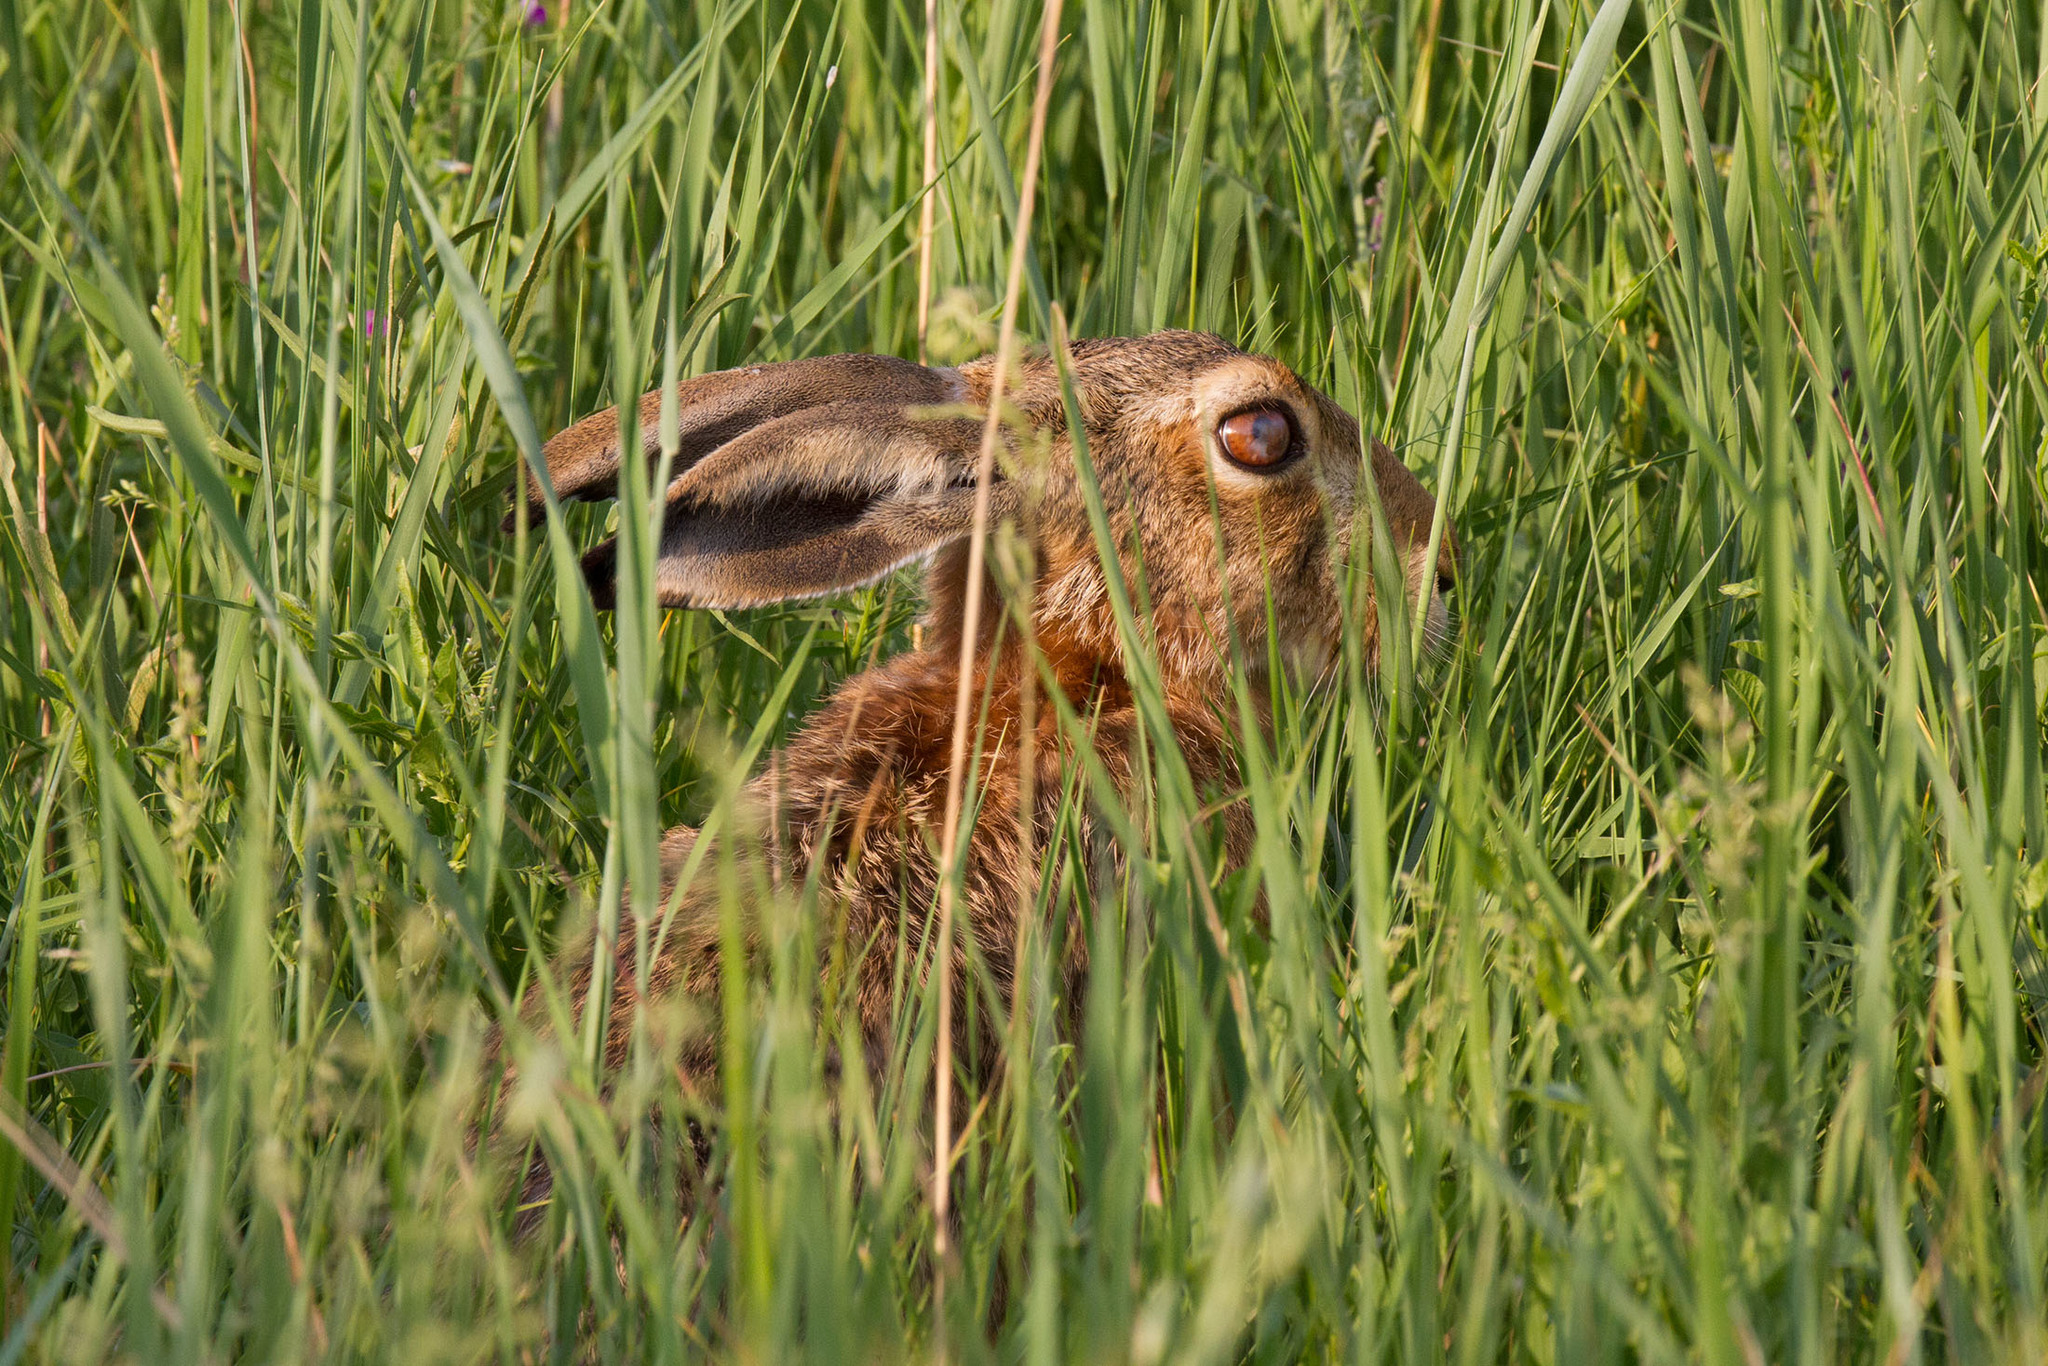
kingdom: Animalia
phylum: Chordata
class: Mammalia
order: Lagomorpha
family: Leporidae
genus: Lepus
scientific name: Lepus europaeus
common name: European hare
